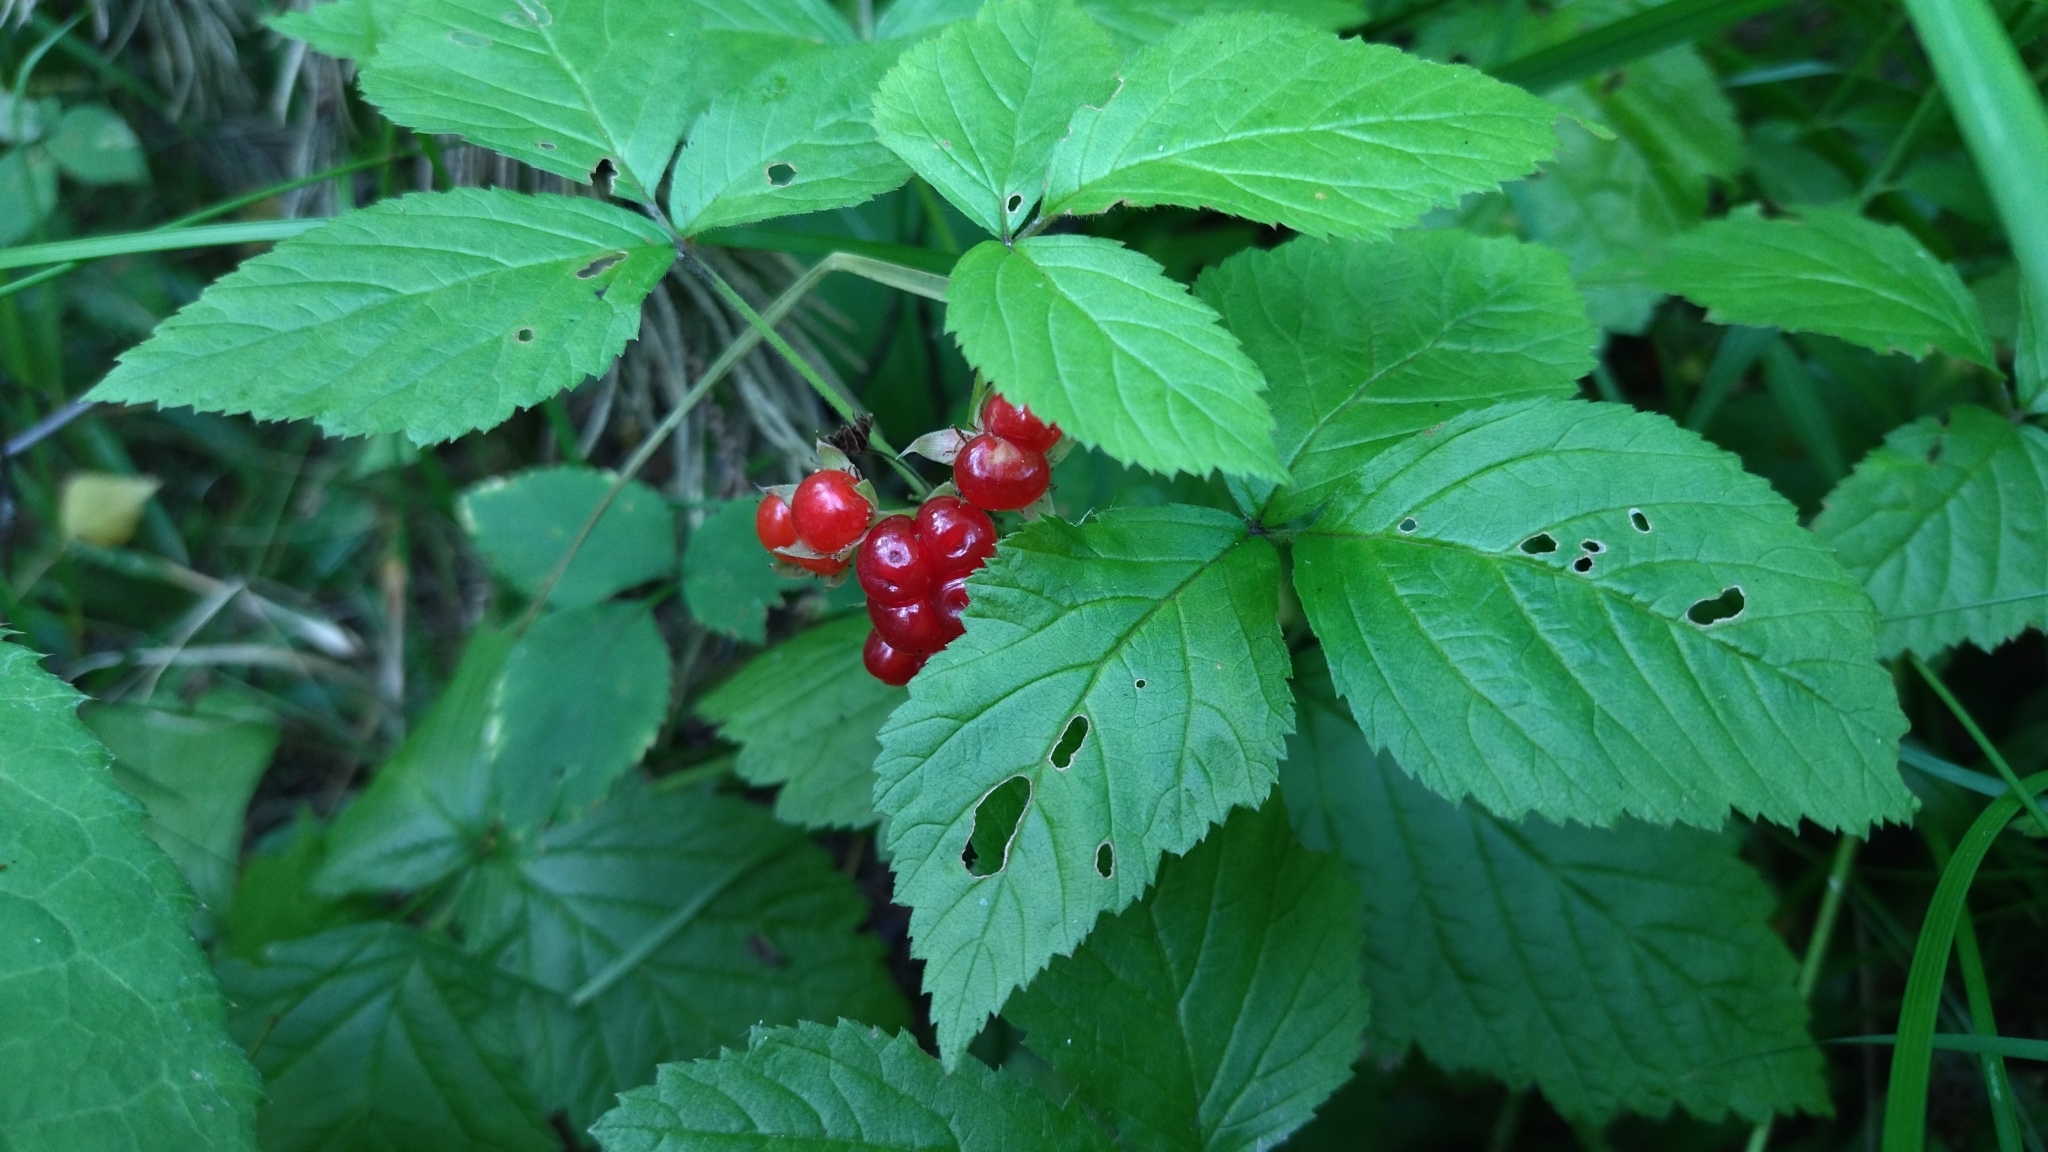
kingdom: Plantae
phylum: Tracheophyta
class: Magnoliopsida
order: Rosales
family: Rosaceae
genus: Rubus
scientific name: Rubus saxatilis
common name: Stone bramble
